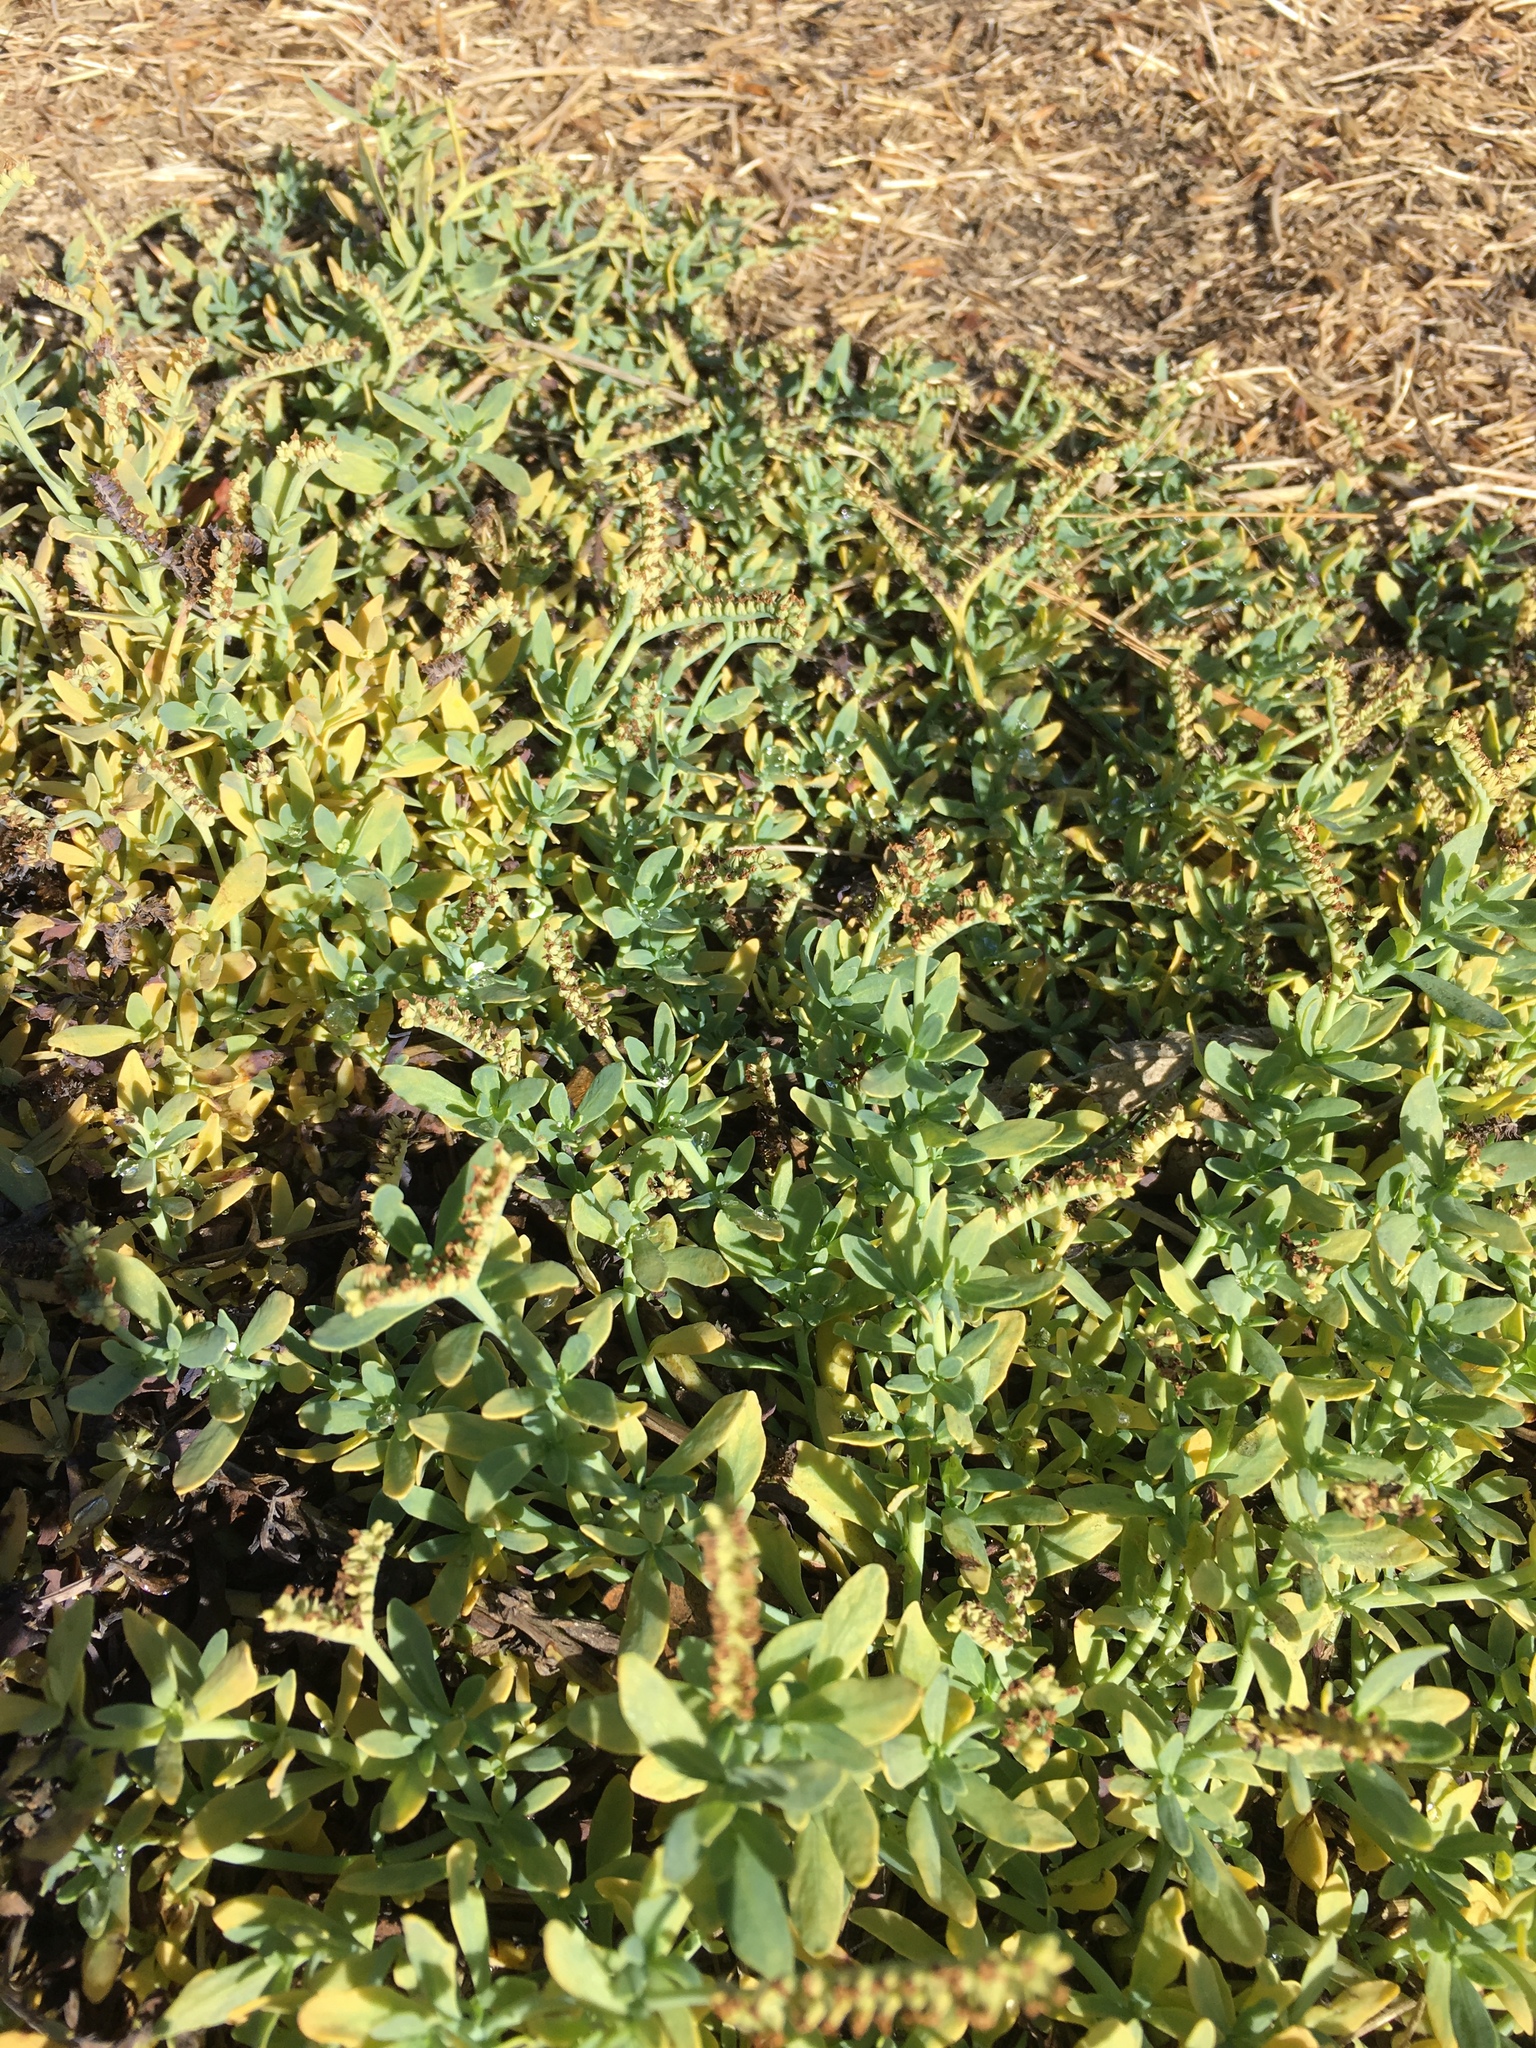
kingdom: Plantae
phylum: Tracheophyta
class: Magnoliopsida
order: Boraginales
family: Heliotropiaceae
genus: Heliotropium
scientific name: Heliotropium curassavicum
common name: Seaside heliotrope
